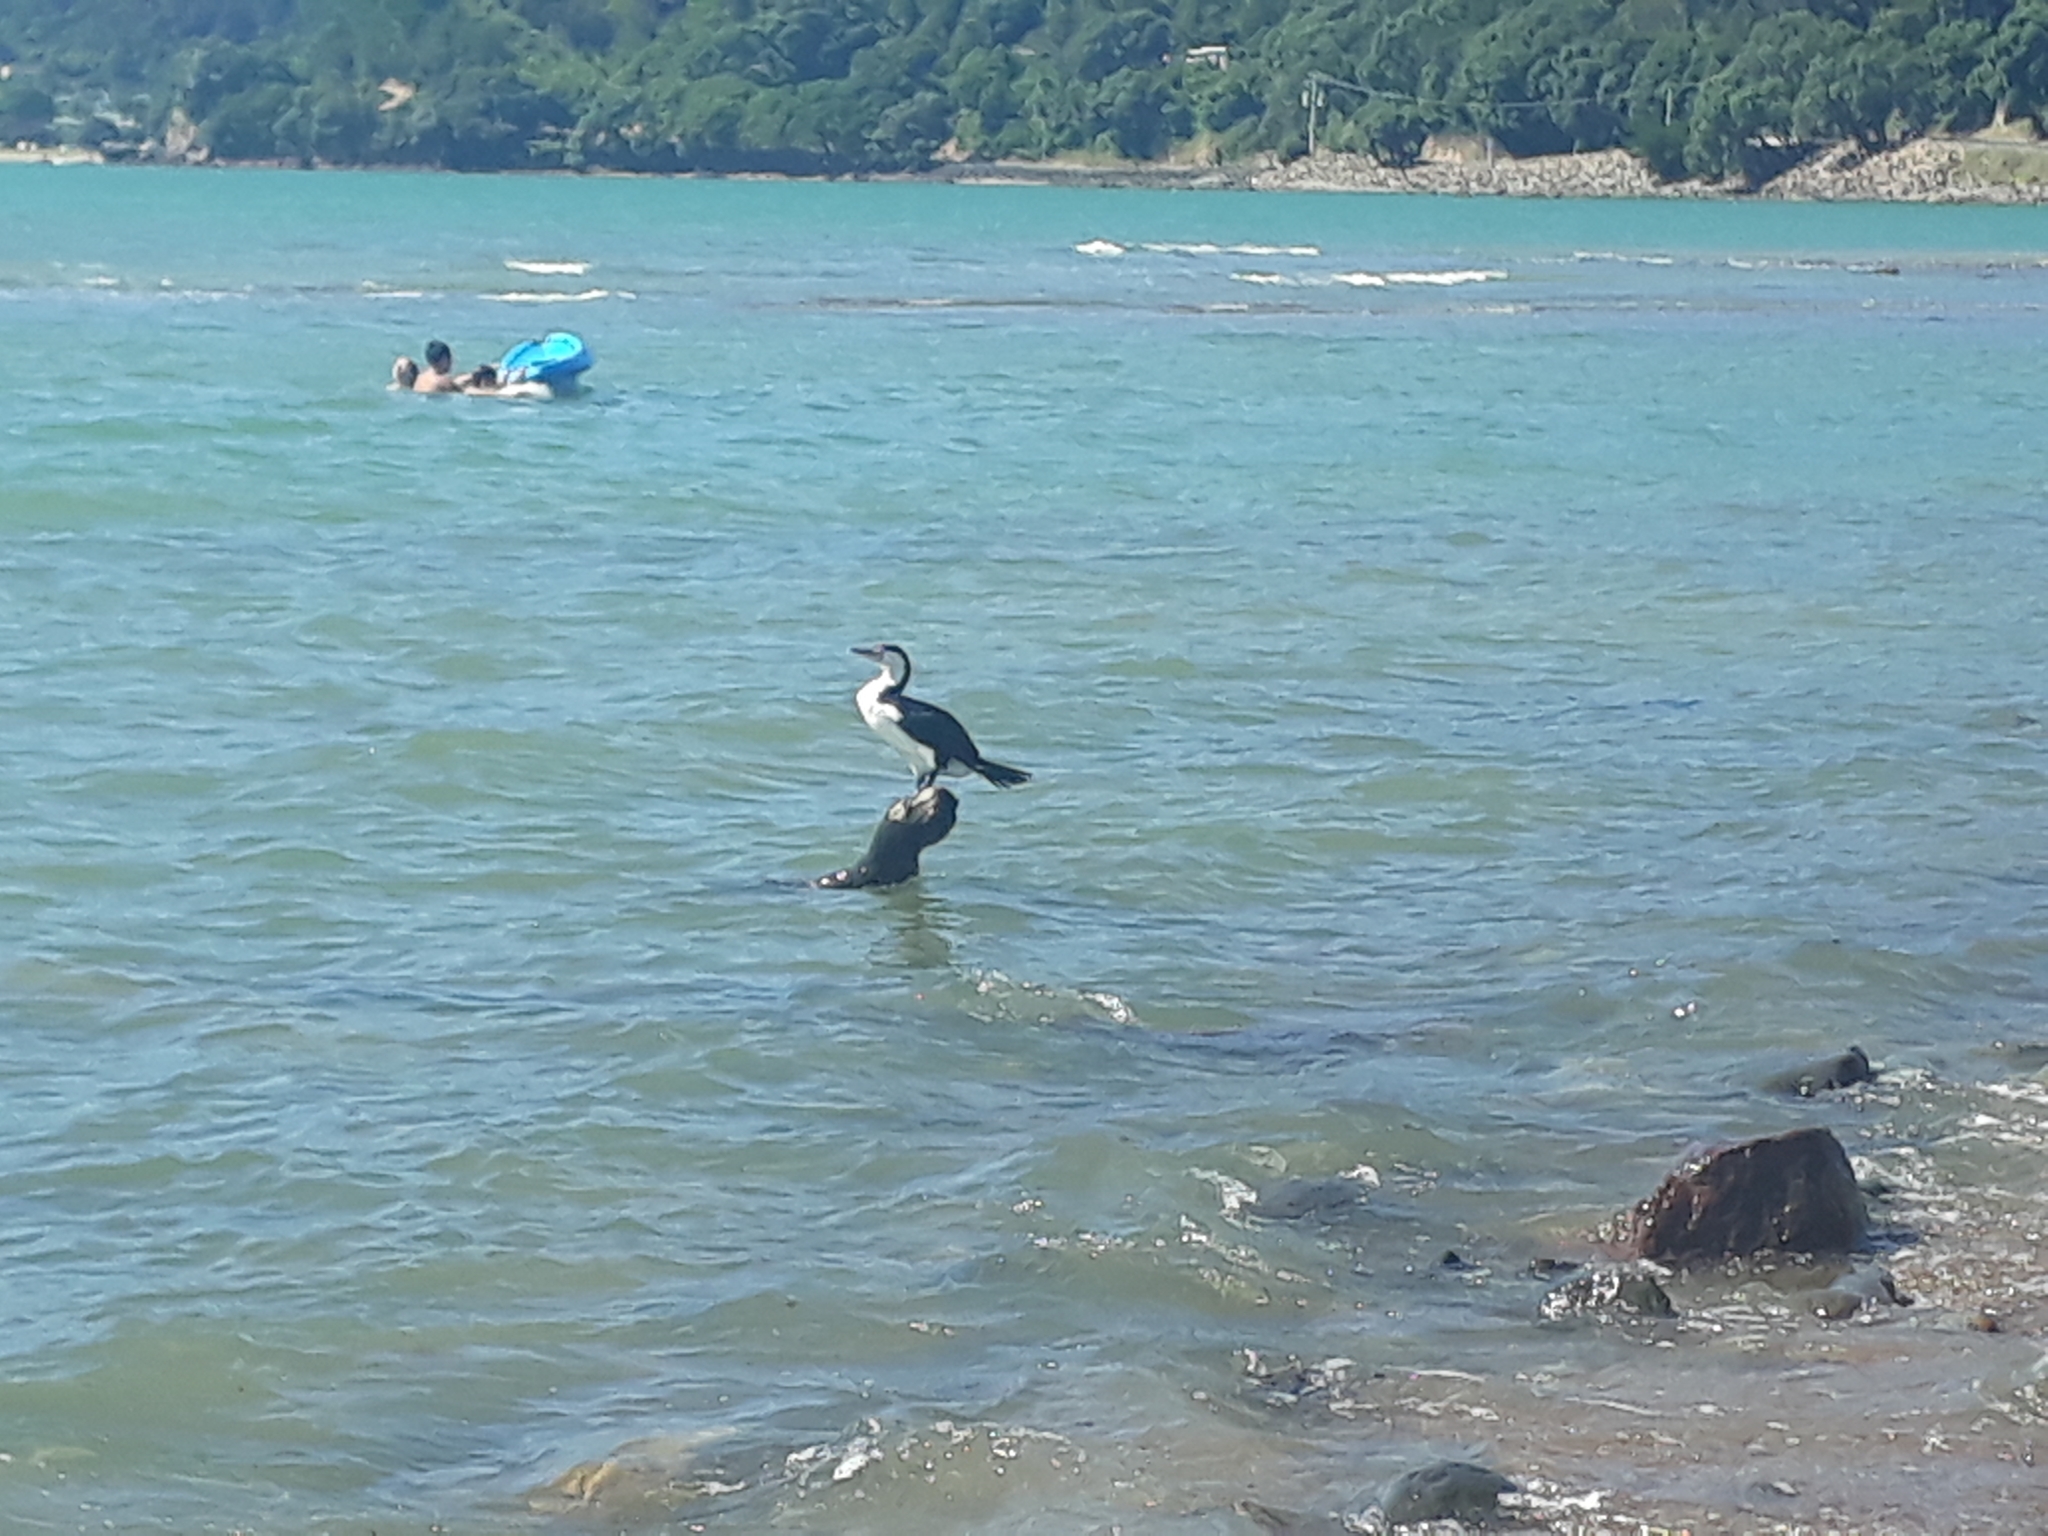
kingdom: Animalia
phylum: Chordata
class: Aves
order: Suliformes
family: Phalacrocoracidae
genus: Phalacrocorax
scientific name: Phalacrocorax varius
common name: Pied cormorant
